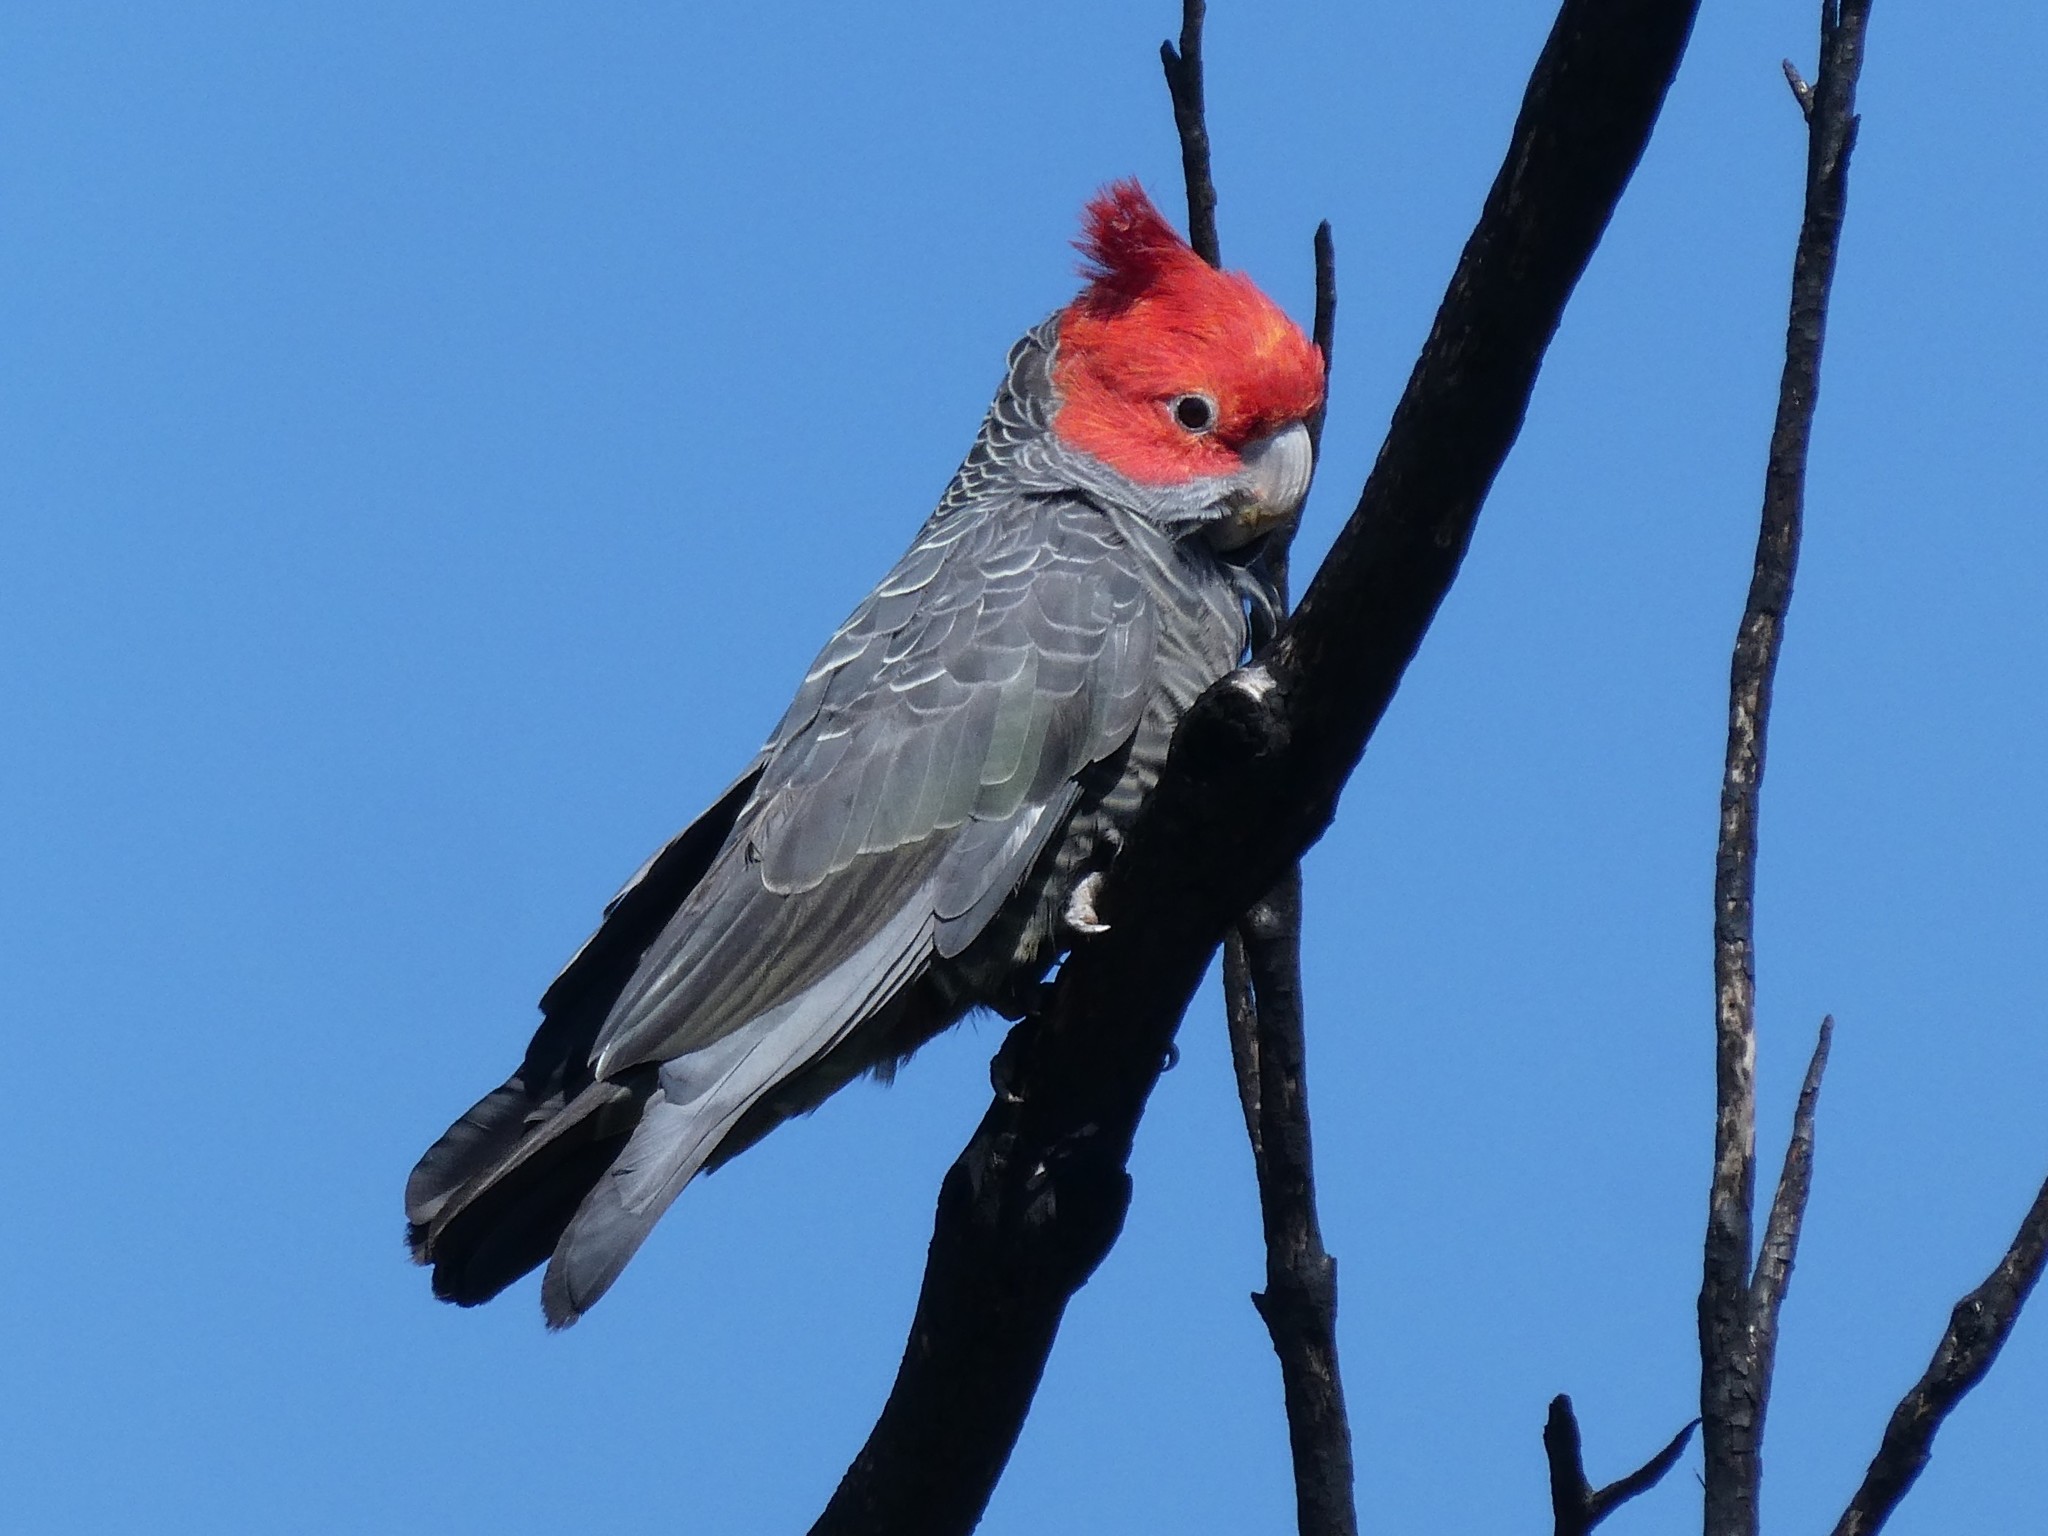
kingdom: Animalia
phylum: Chordata
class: Aves
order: Psittaciformes
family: Psittacidae
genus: Callocephalon
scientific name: Callocephalon fimbriatum
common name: Gang-gang cockatoo
